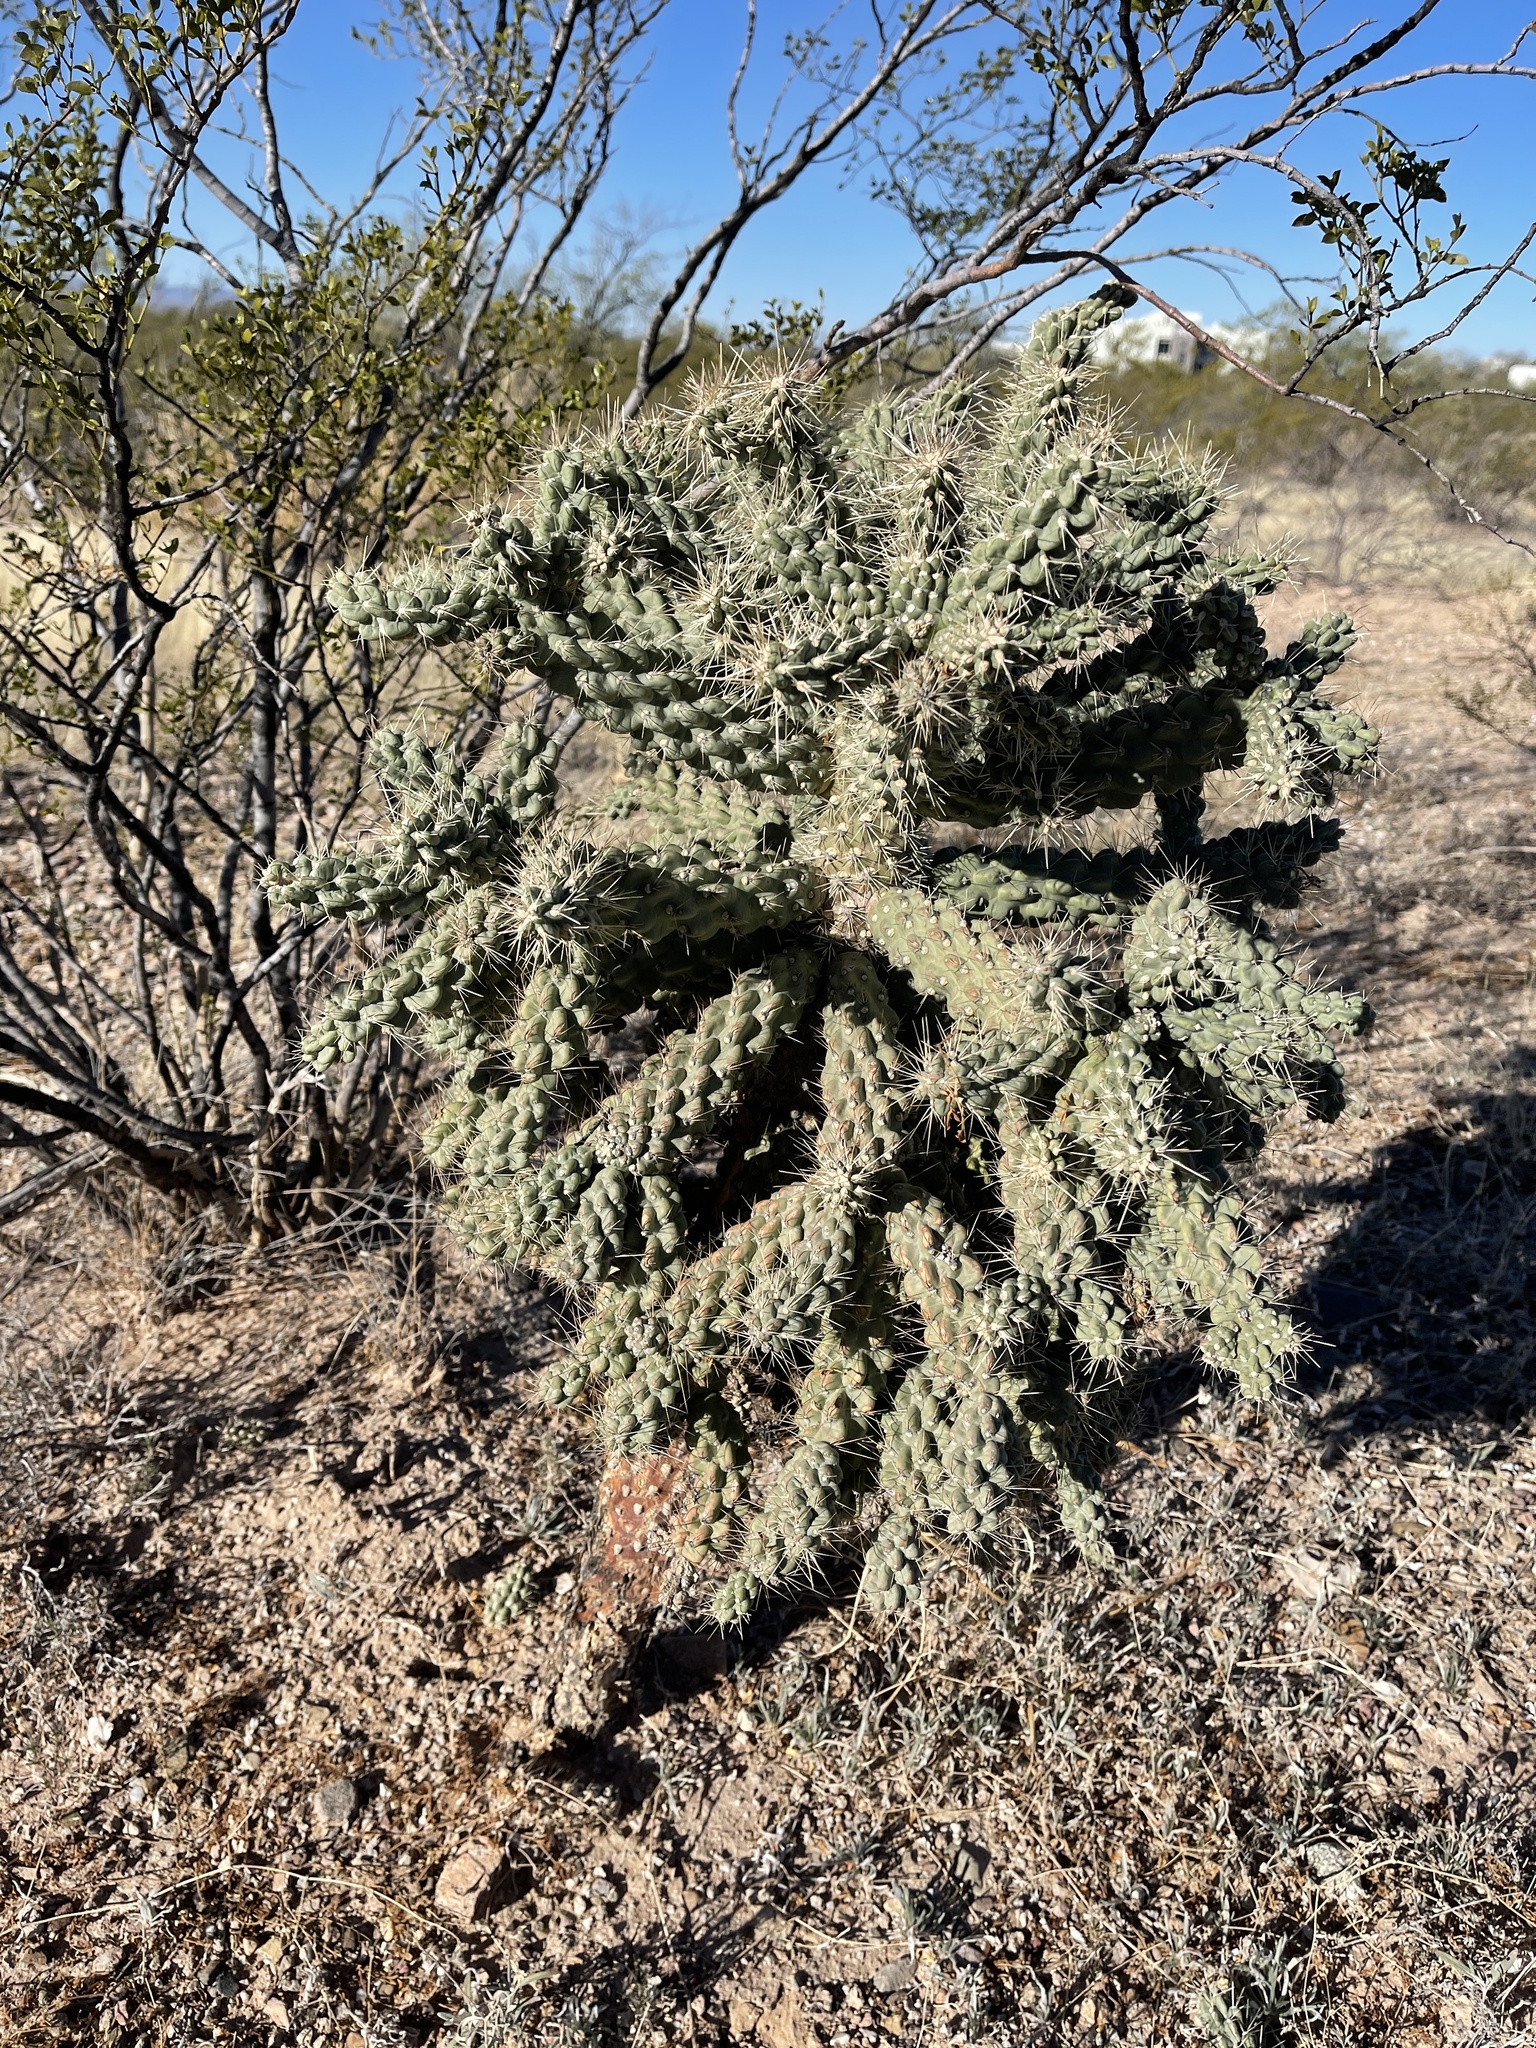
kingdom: Plantae
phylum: Tracheophyta
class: Magnoliopsida
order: Caryophyllales
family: Cactaceae
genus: Cylindropuntia
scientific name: Cylindropuntia fulgida
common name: Jumping cholla
